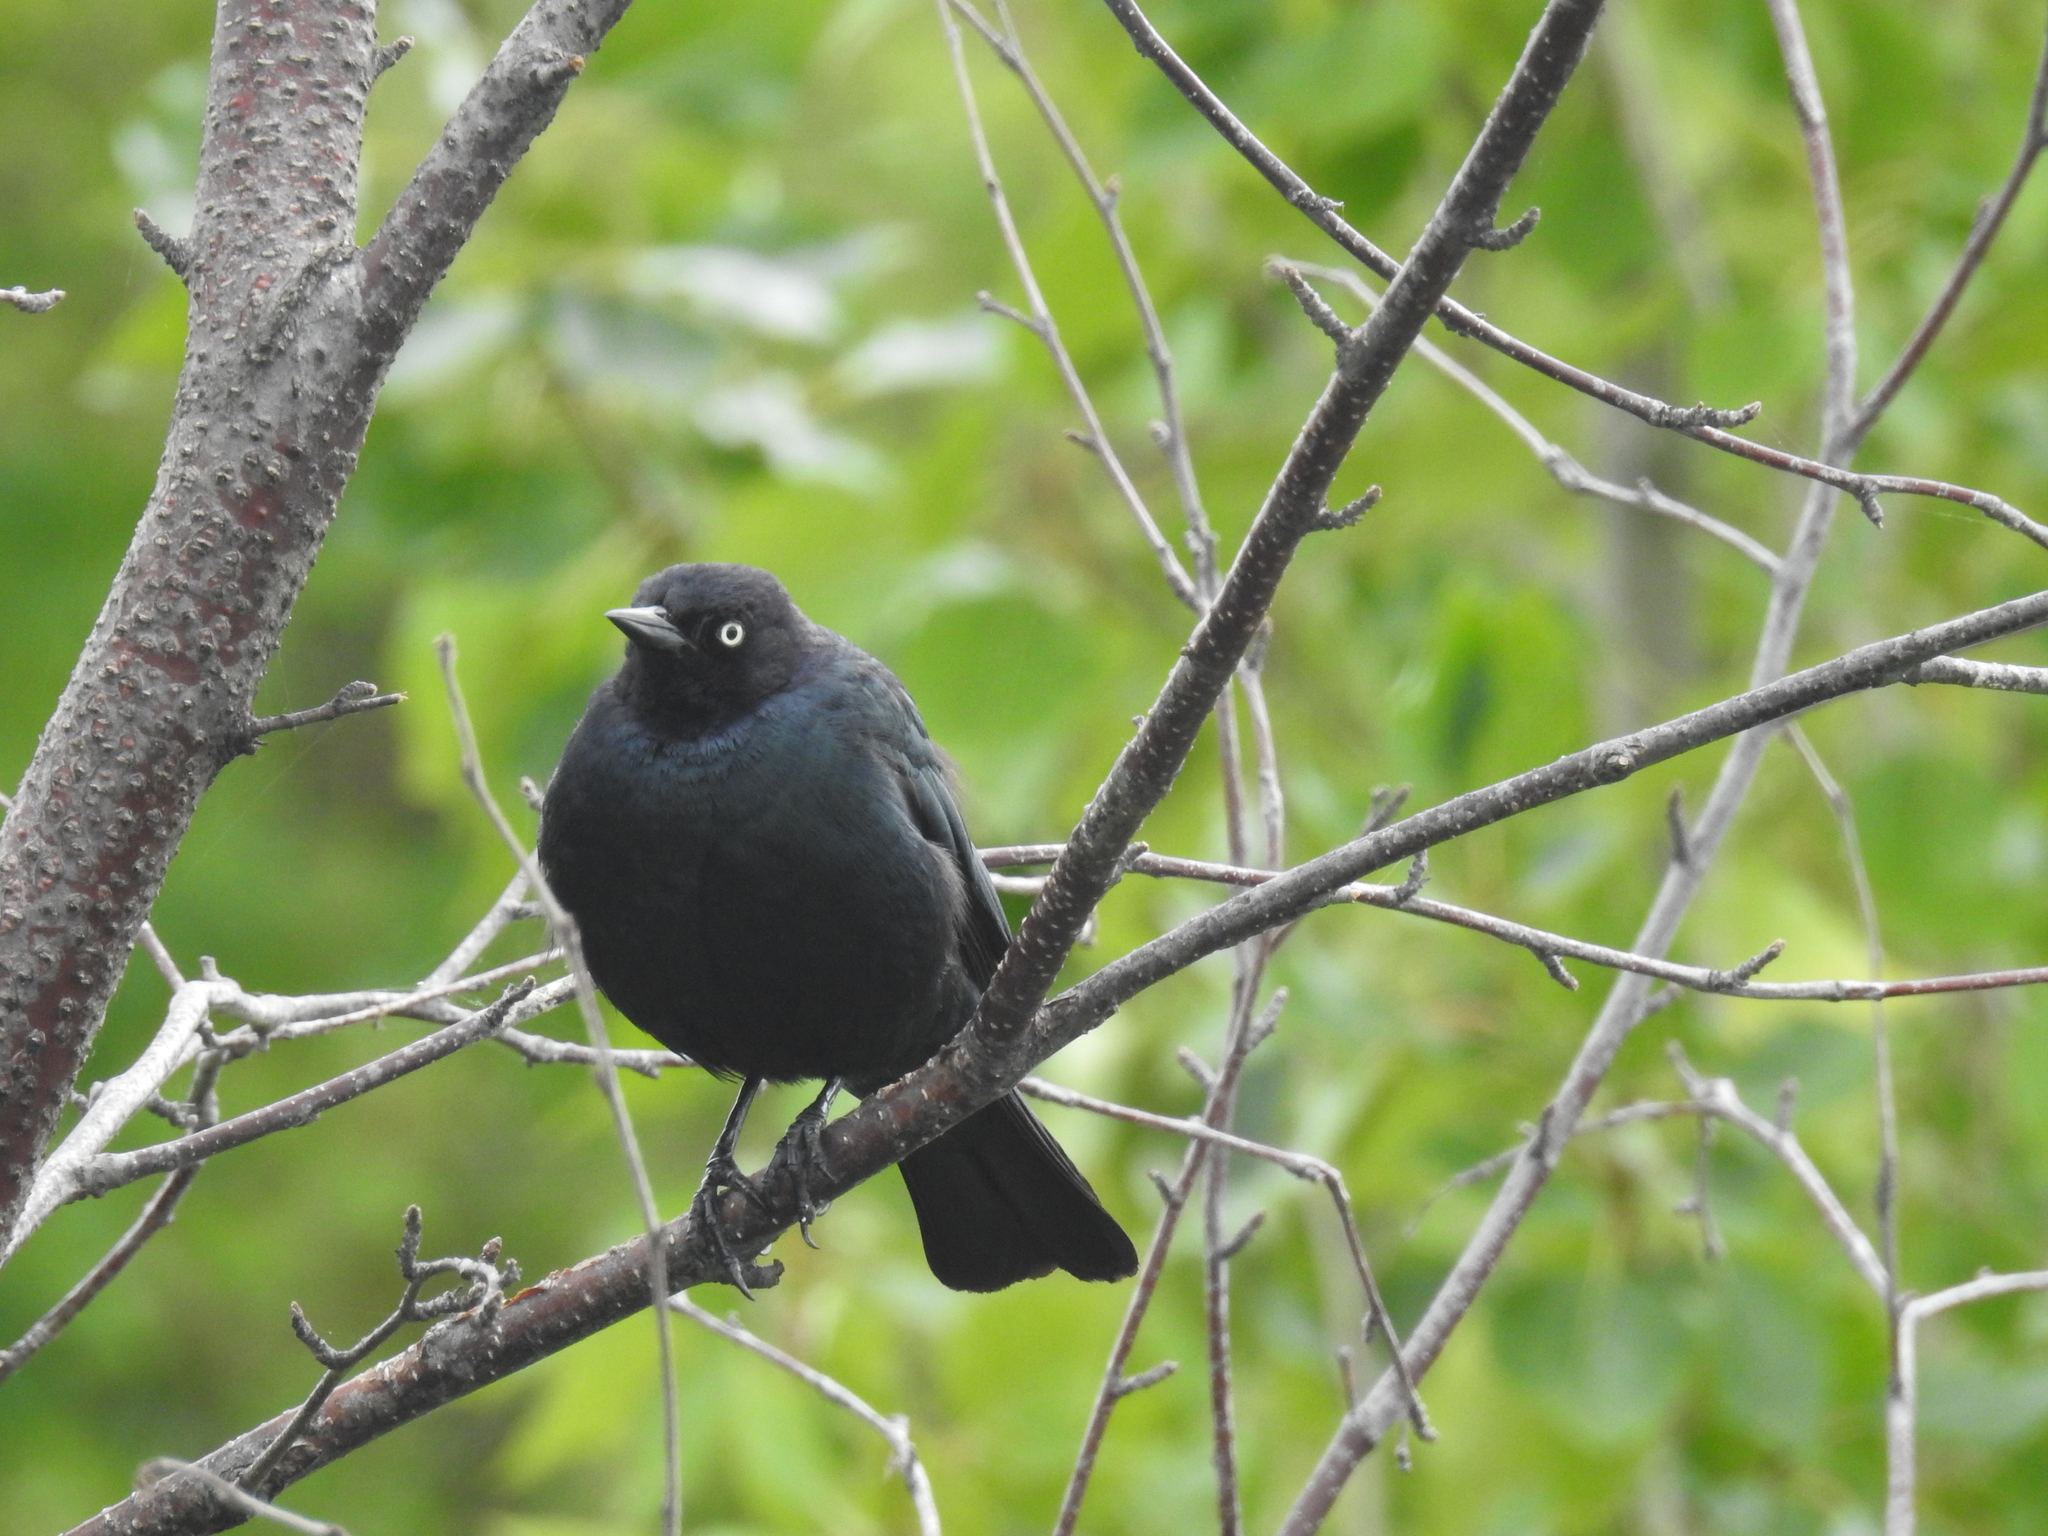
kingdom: Animalia
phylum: Chordata
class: Aves
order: Passeriformes
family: Icteridae
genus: Euphagus
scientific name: Euphagus cyanocephalus
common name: Brewer's blackbird
